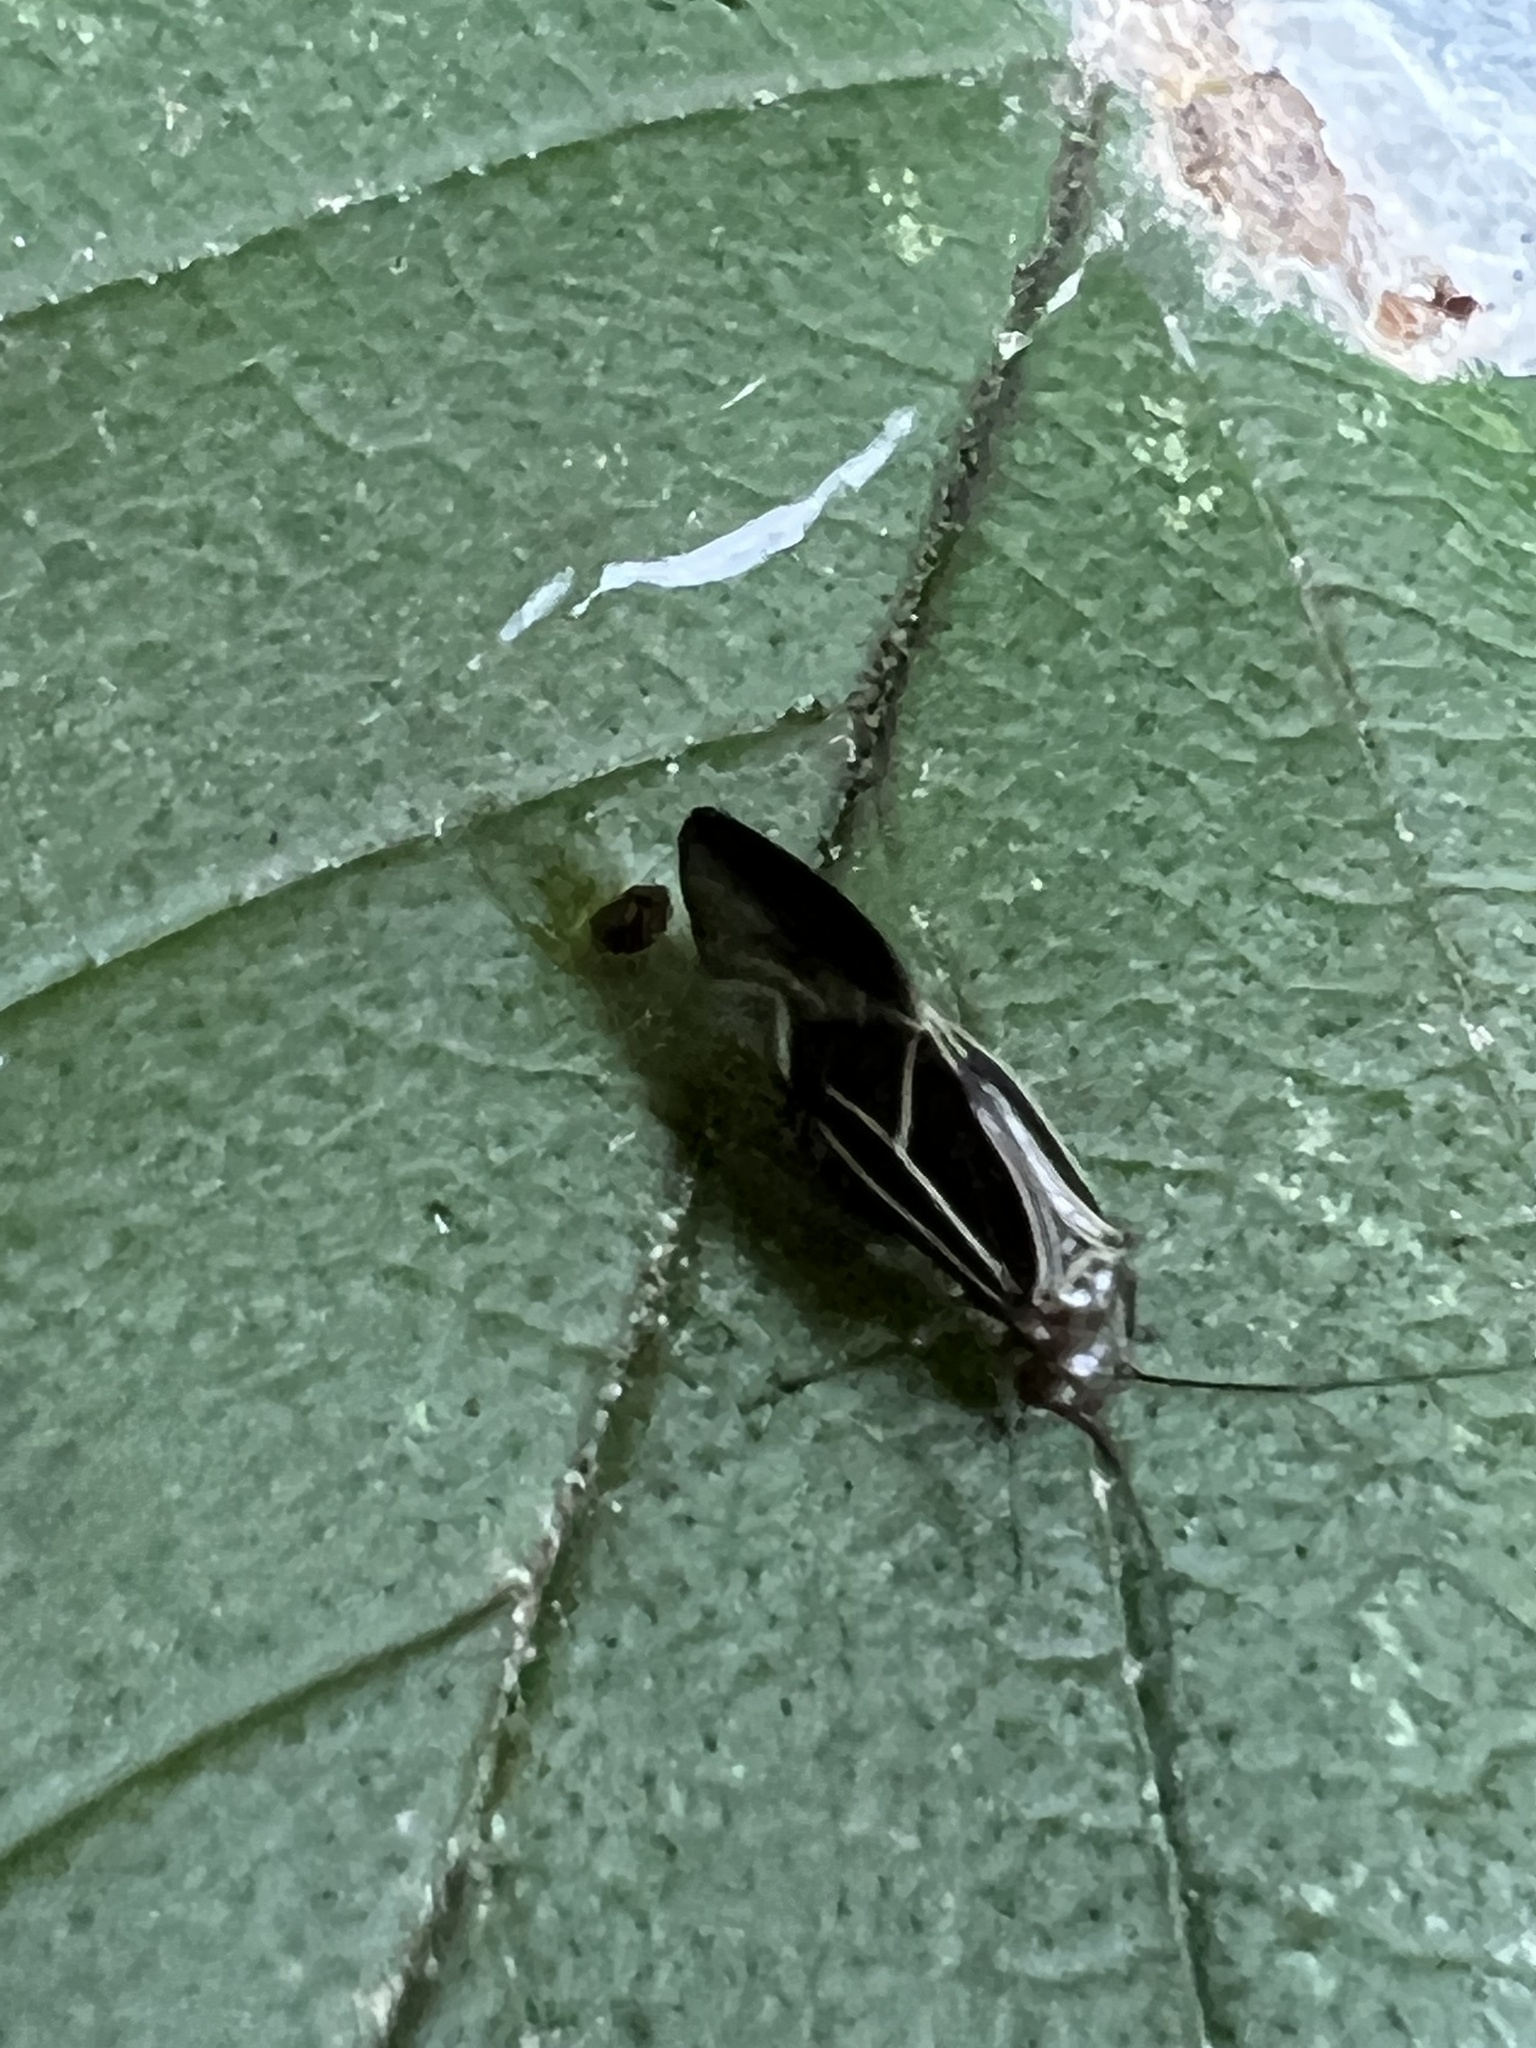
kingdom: Animalia
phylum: Arthropoda
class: Insecta
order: Psocodea
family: Psocidae
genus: Cerastipsocus
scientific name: Cerastipsocus venosus
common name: Tree cattle
